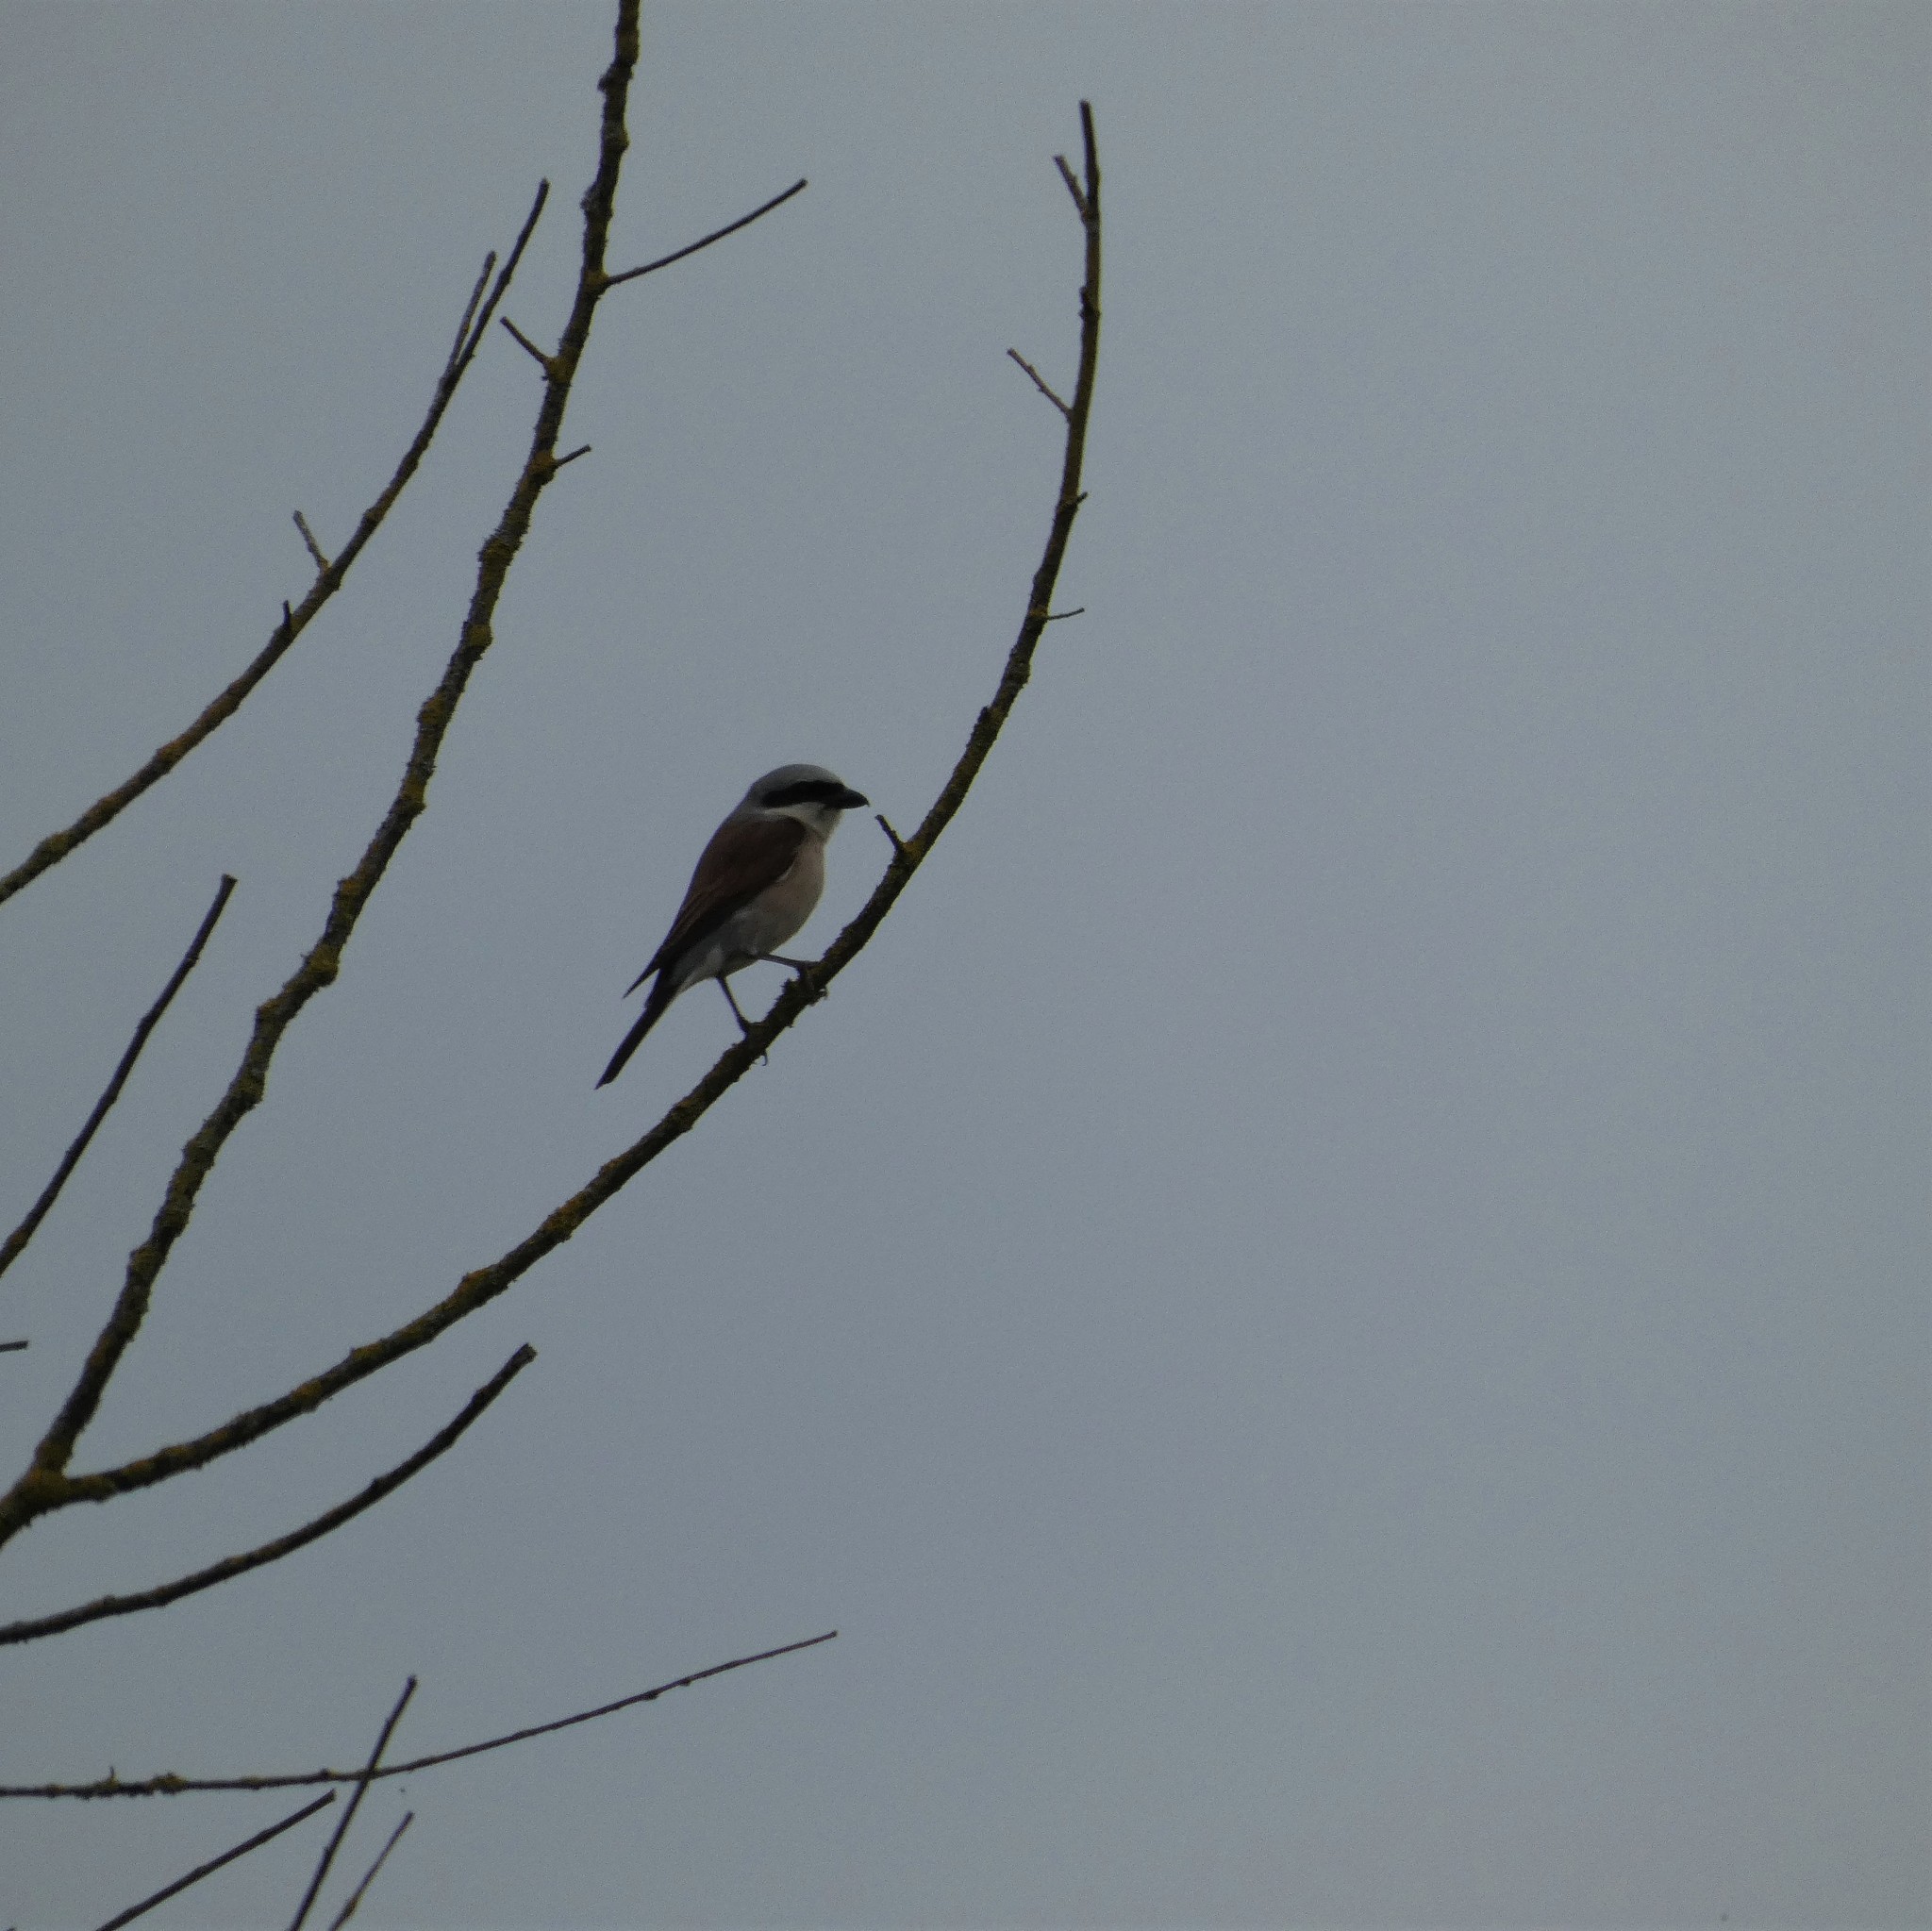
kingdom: Animalia
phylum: Chordata
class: Aves
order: Passeriformes
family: Laniidae
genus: Lanius
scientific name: Lanius collurio
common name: Red-backed shrike
